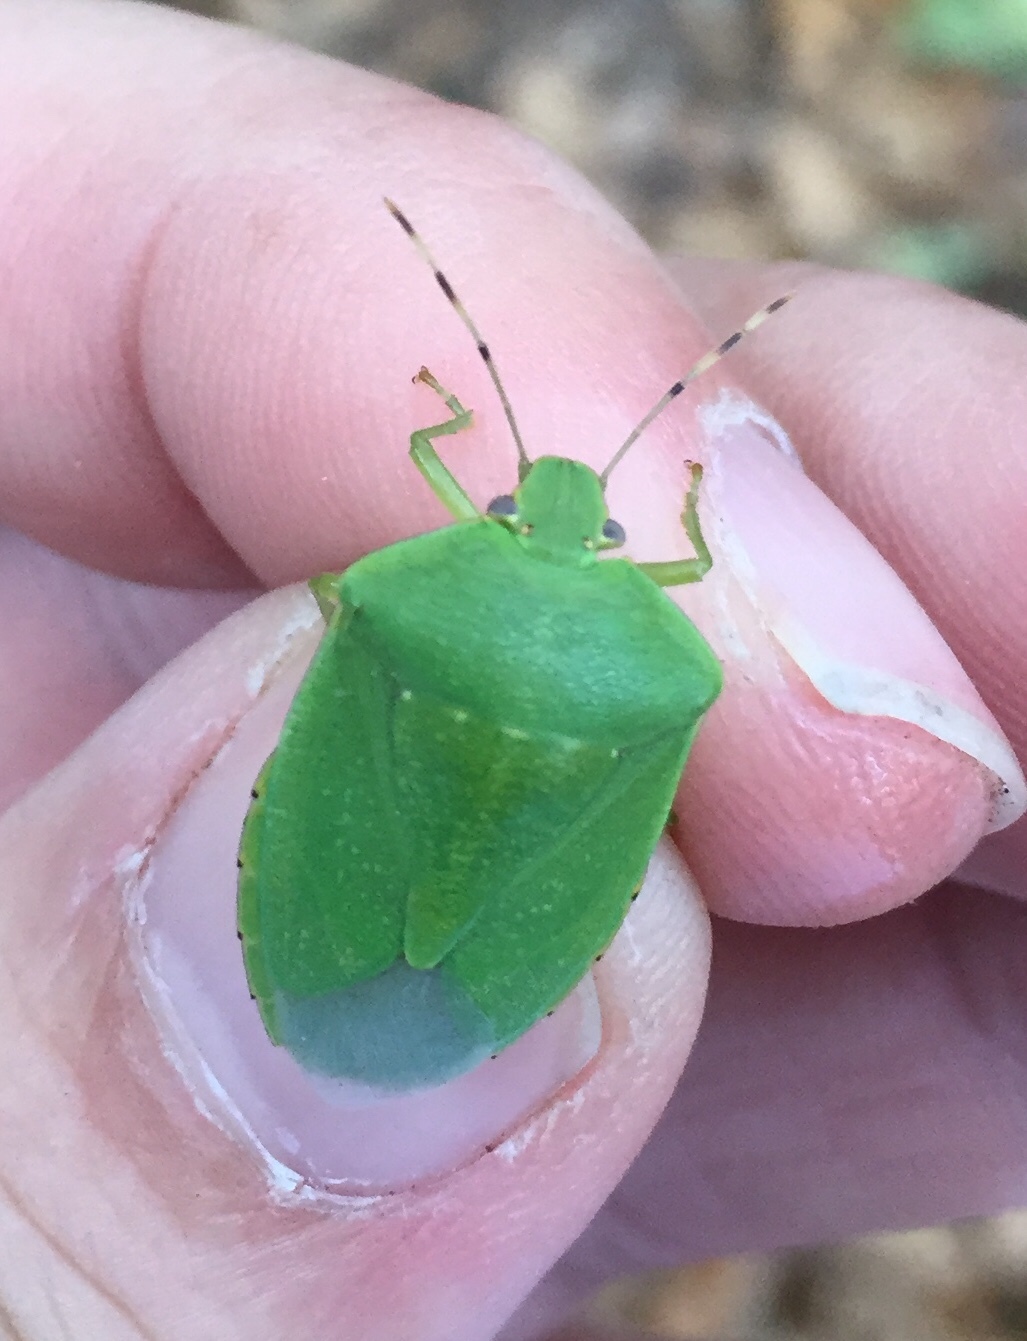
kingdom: Animalia
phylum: Arthropoda
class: Insecta
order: Hemiptera
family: Pentatomidae
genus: Chinavia
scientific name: Chinavia hilaris
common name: Green stink bug
